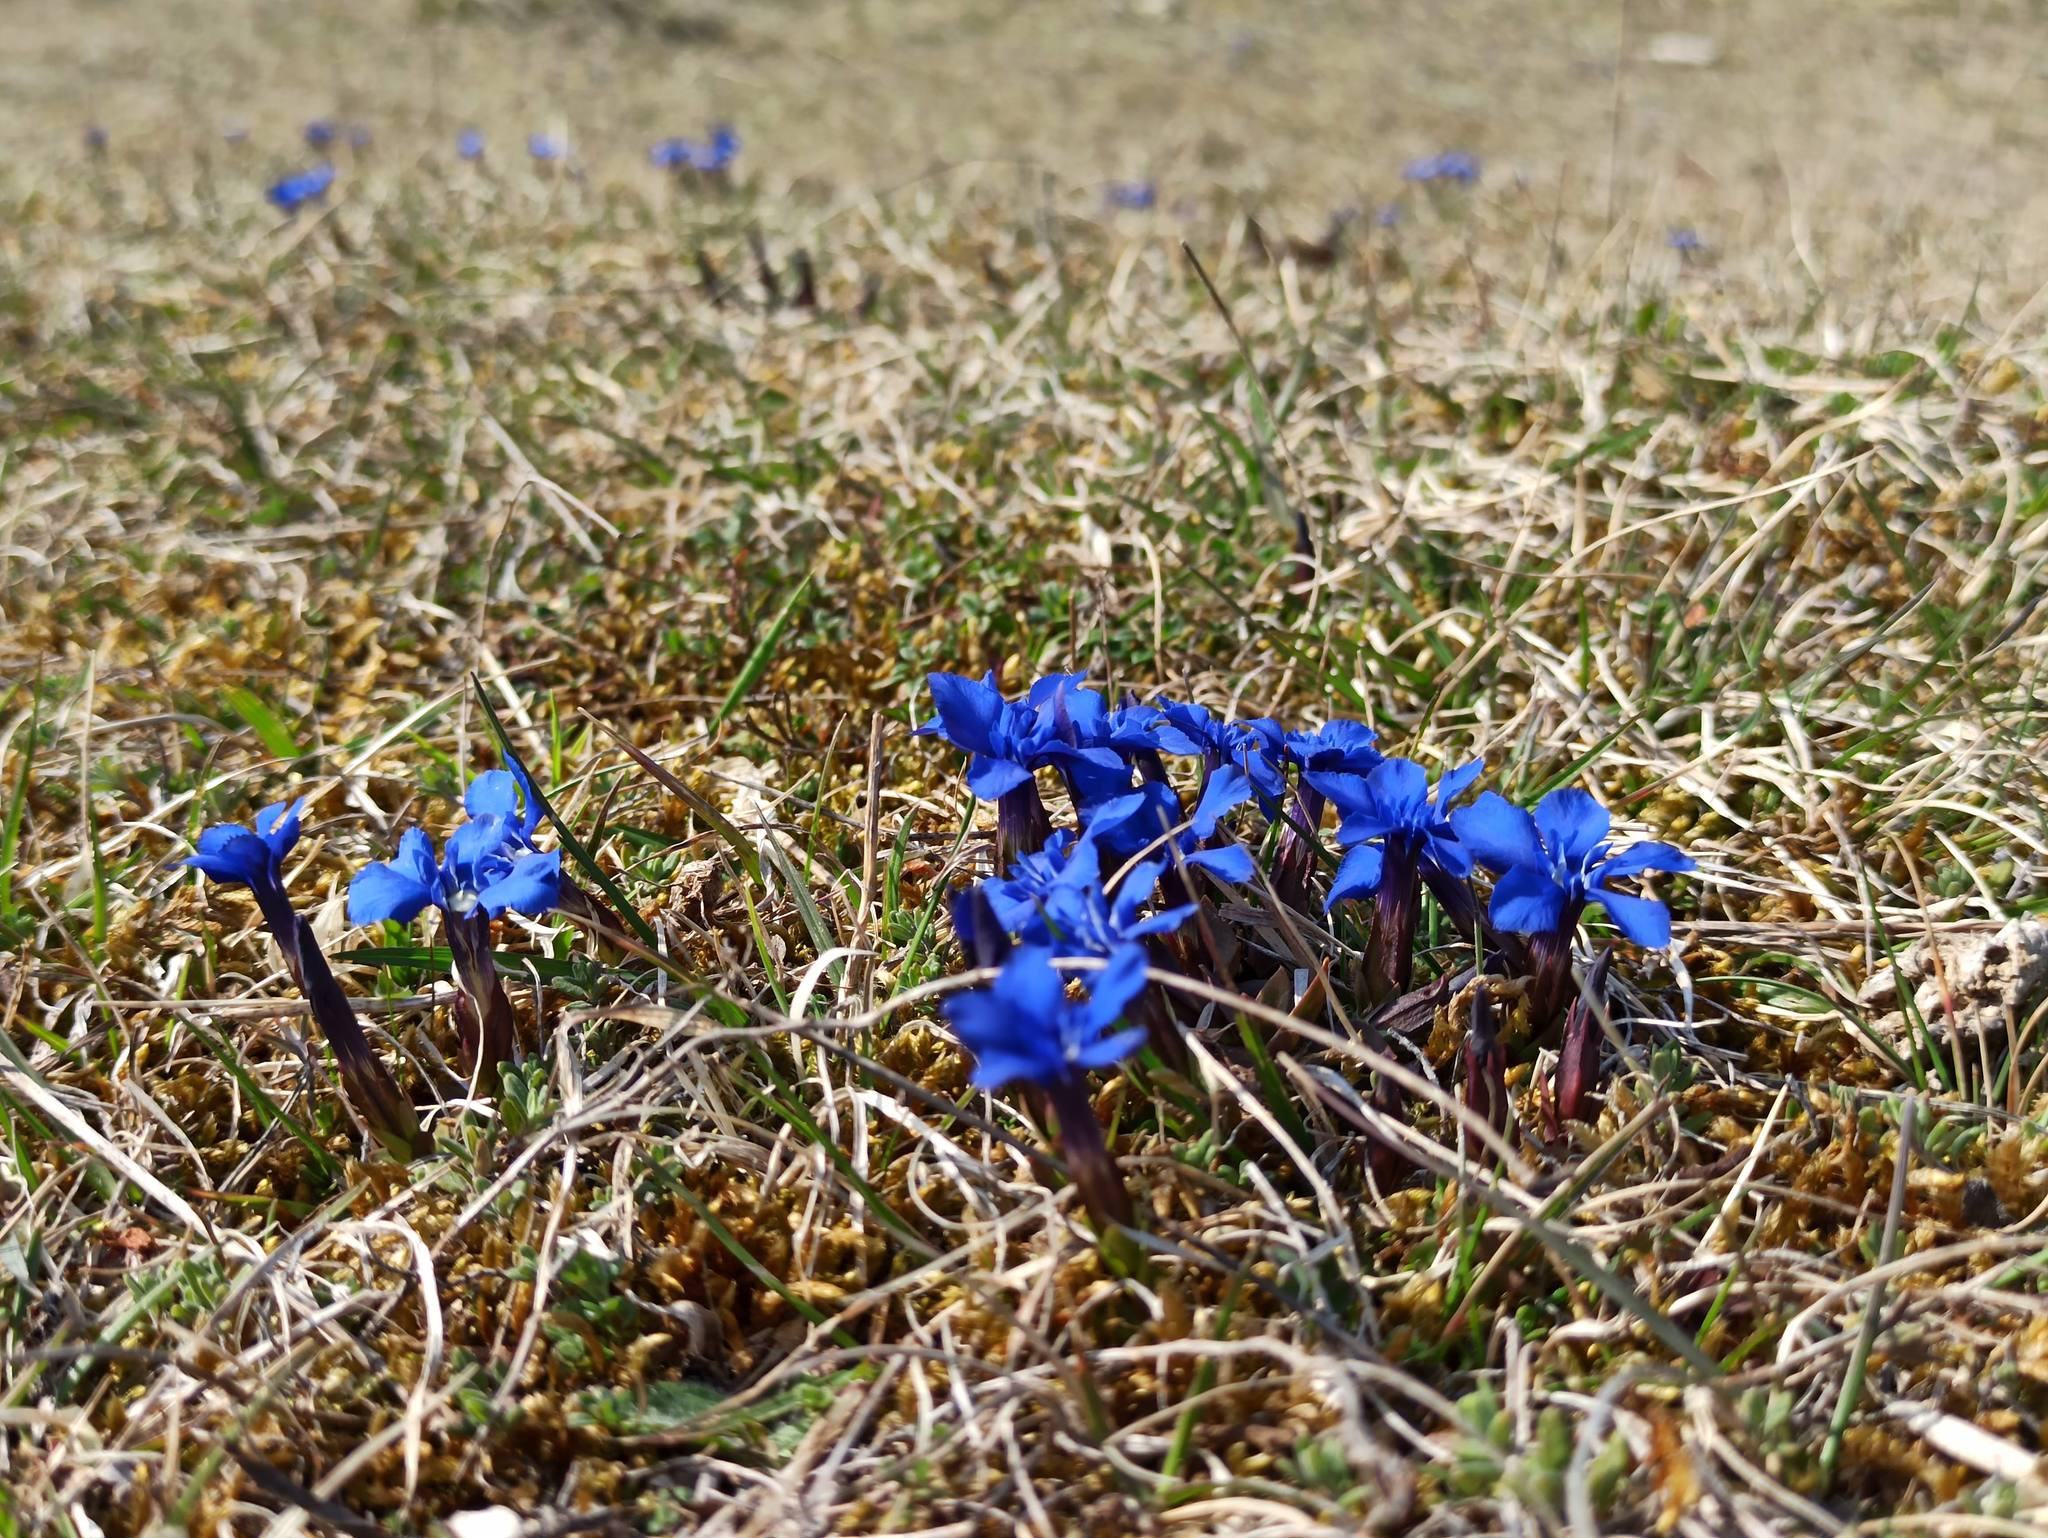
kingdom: Plantae
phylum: Tracheophyta
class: Magnoliopsida
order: Gentianales
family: Gentianaceae
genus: Gentiana
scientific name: Gentiana verna
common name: Spring gentian
